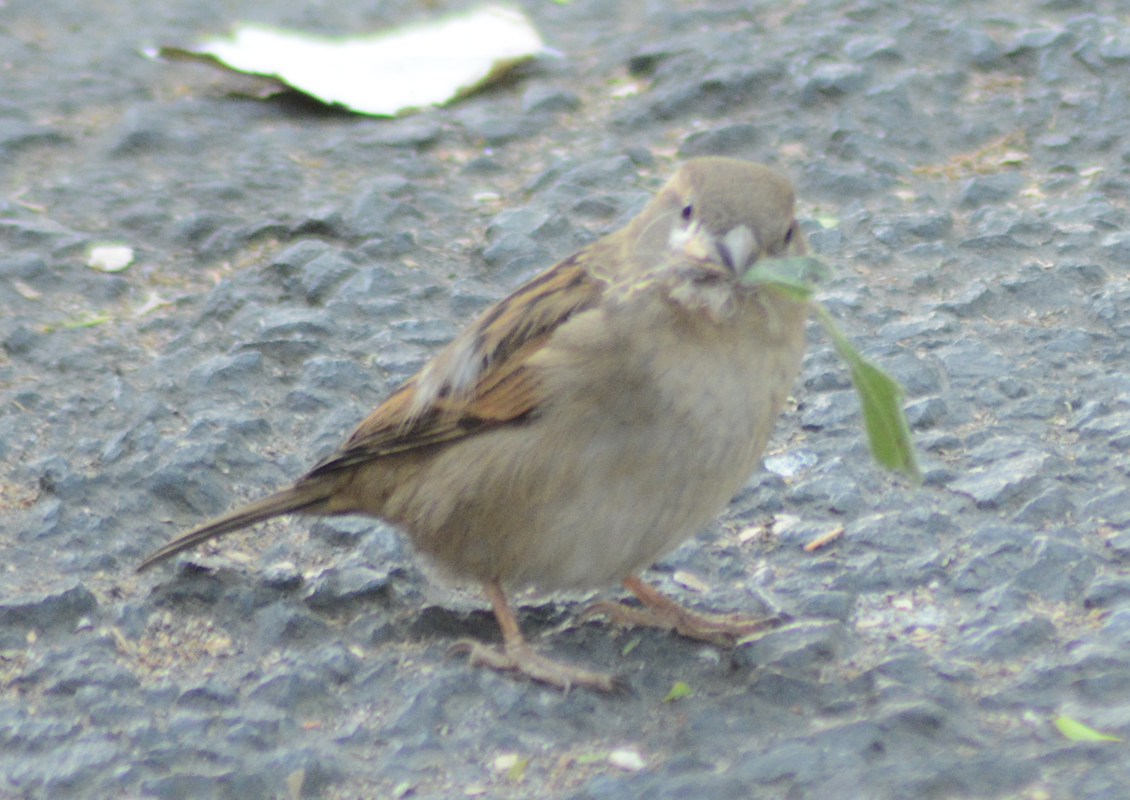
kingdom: Animalia
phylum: Chordata
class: Aves
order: Passeriformes
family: Passeridae
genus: Passer
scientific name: Passer domesticus
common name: House sparrow
